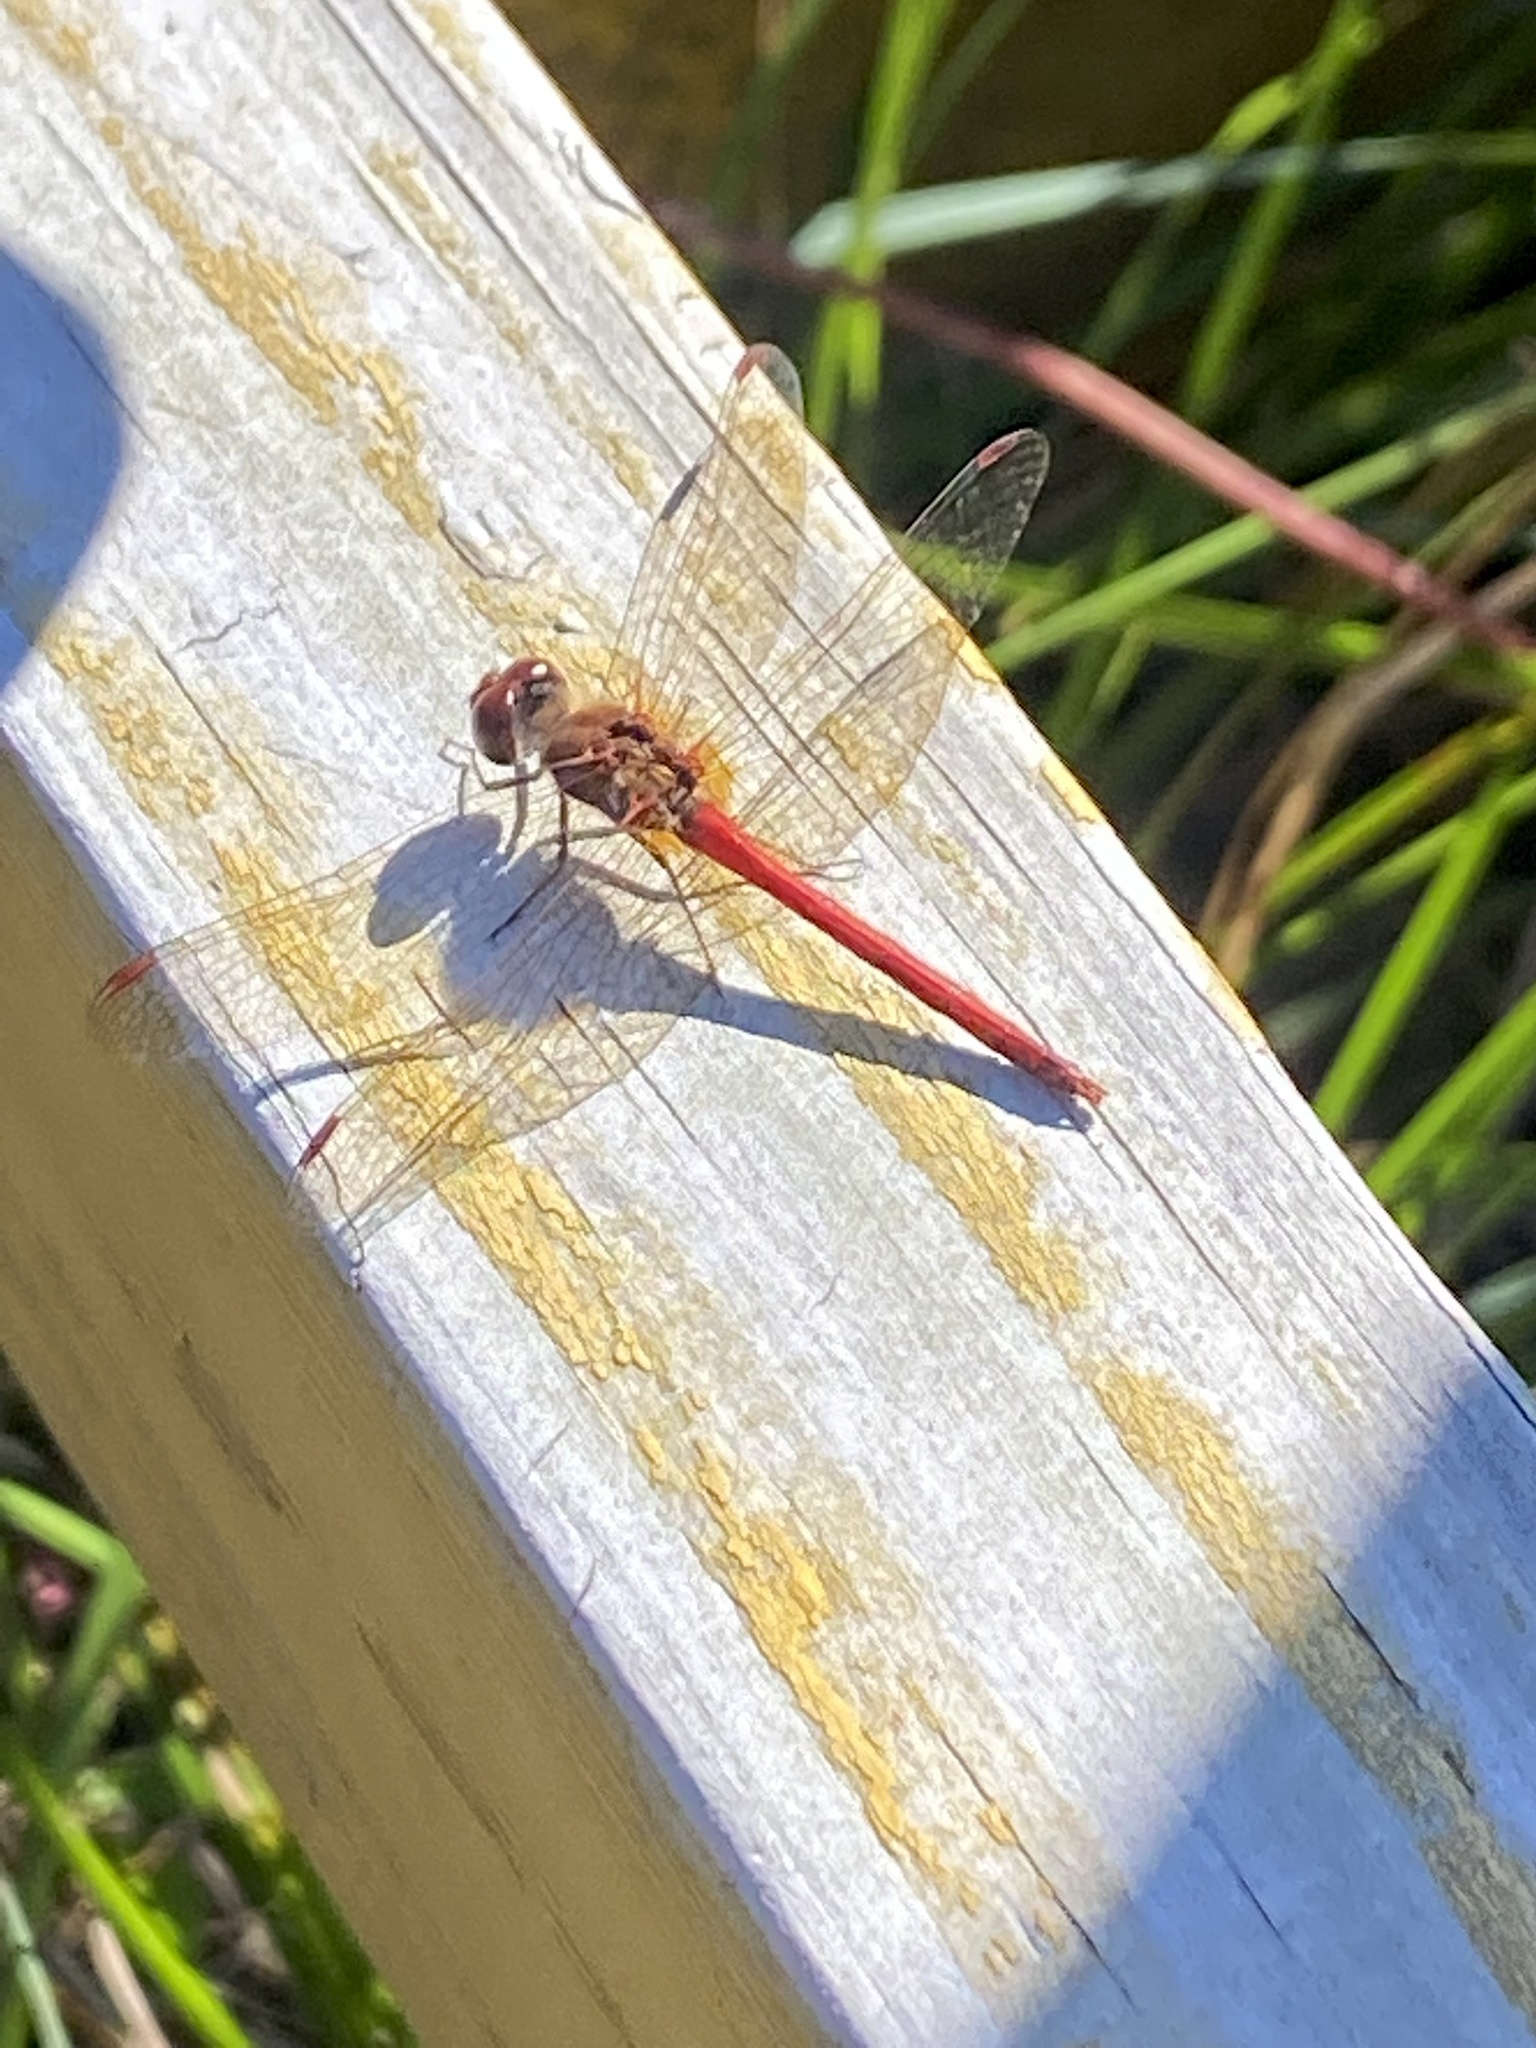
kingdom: Animalia
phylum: Arthropoda
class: Insecta
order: Odonata
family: Libellulidae
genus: Sympetrum
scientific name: Sympetrum vicinum
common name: Autumn meadowhawk
